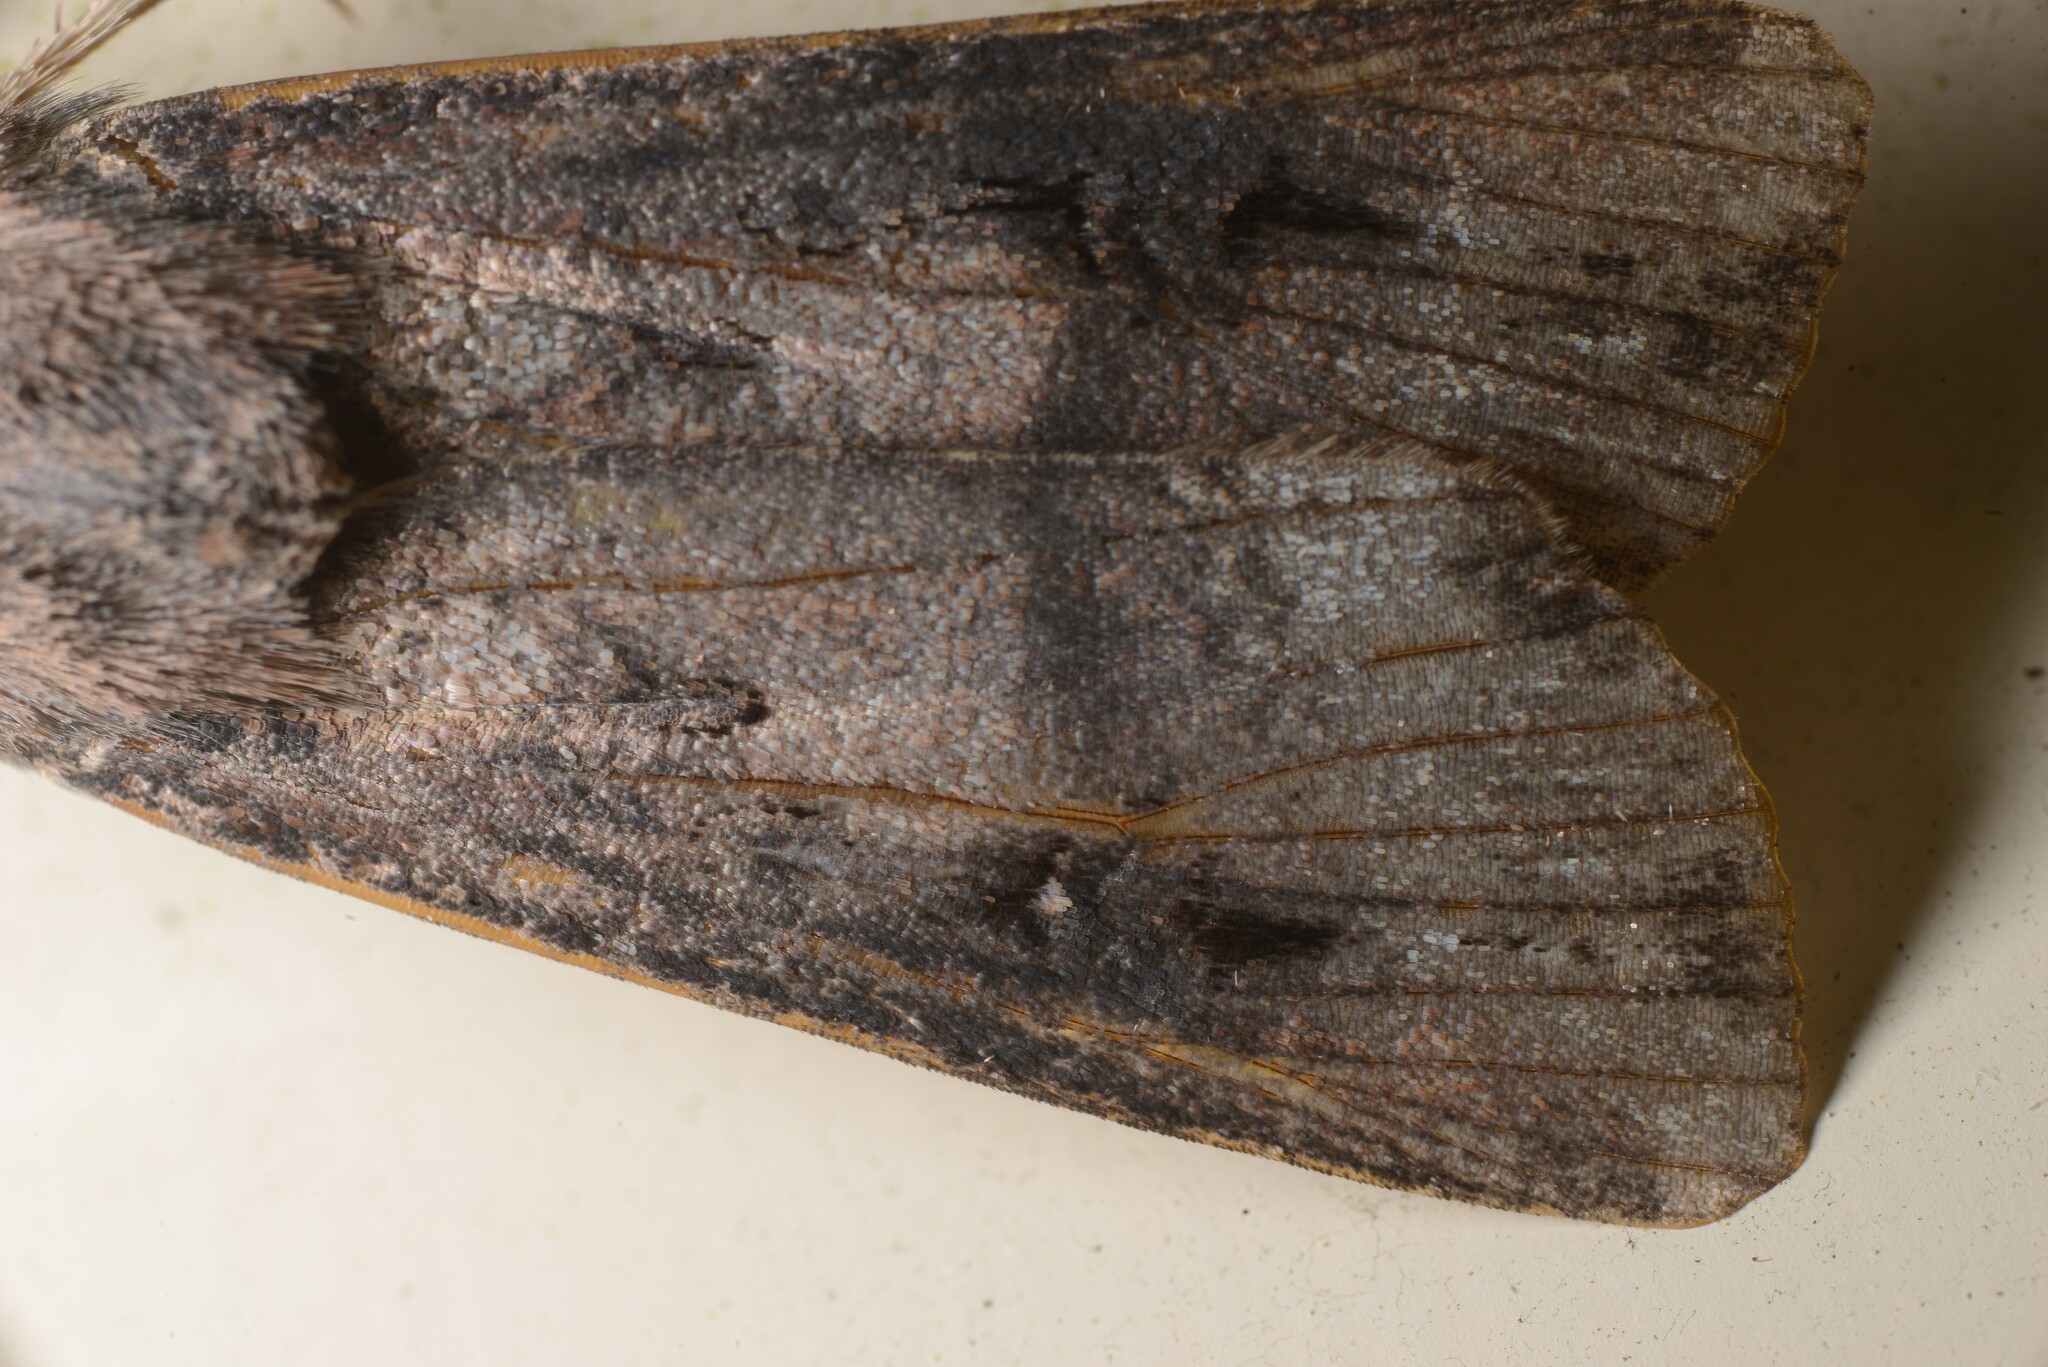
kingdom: Animalia
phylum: Arthropoda
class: Insecta
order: Lepidoptera
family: Noctuidae
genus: Agrotis
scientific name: Agrotis ipsilon
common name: Dark sword-grass
